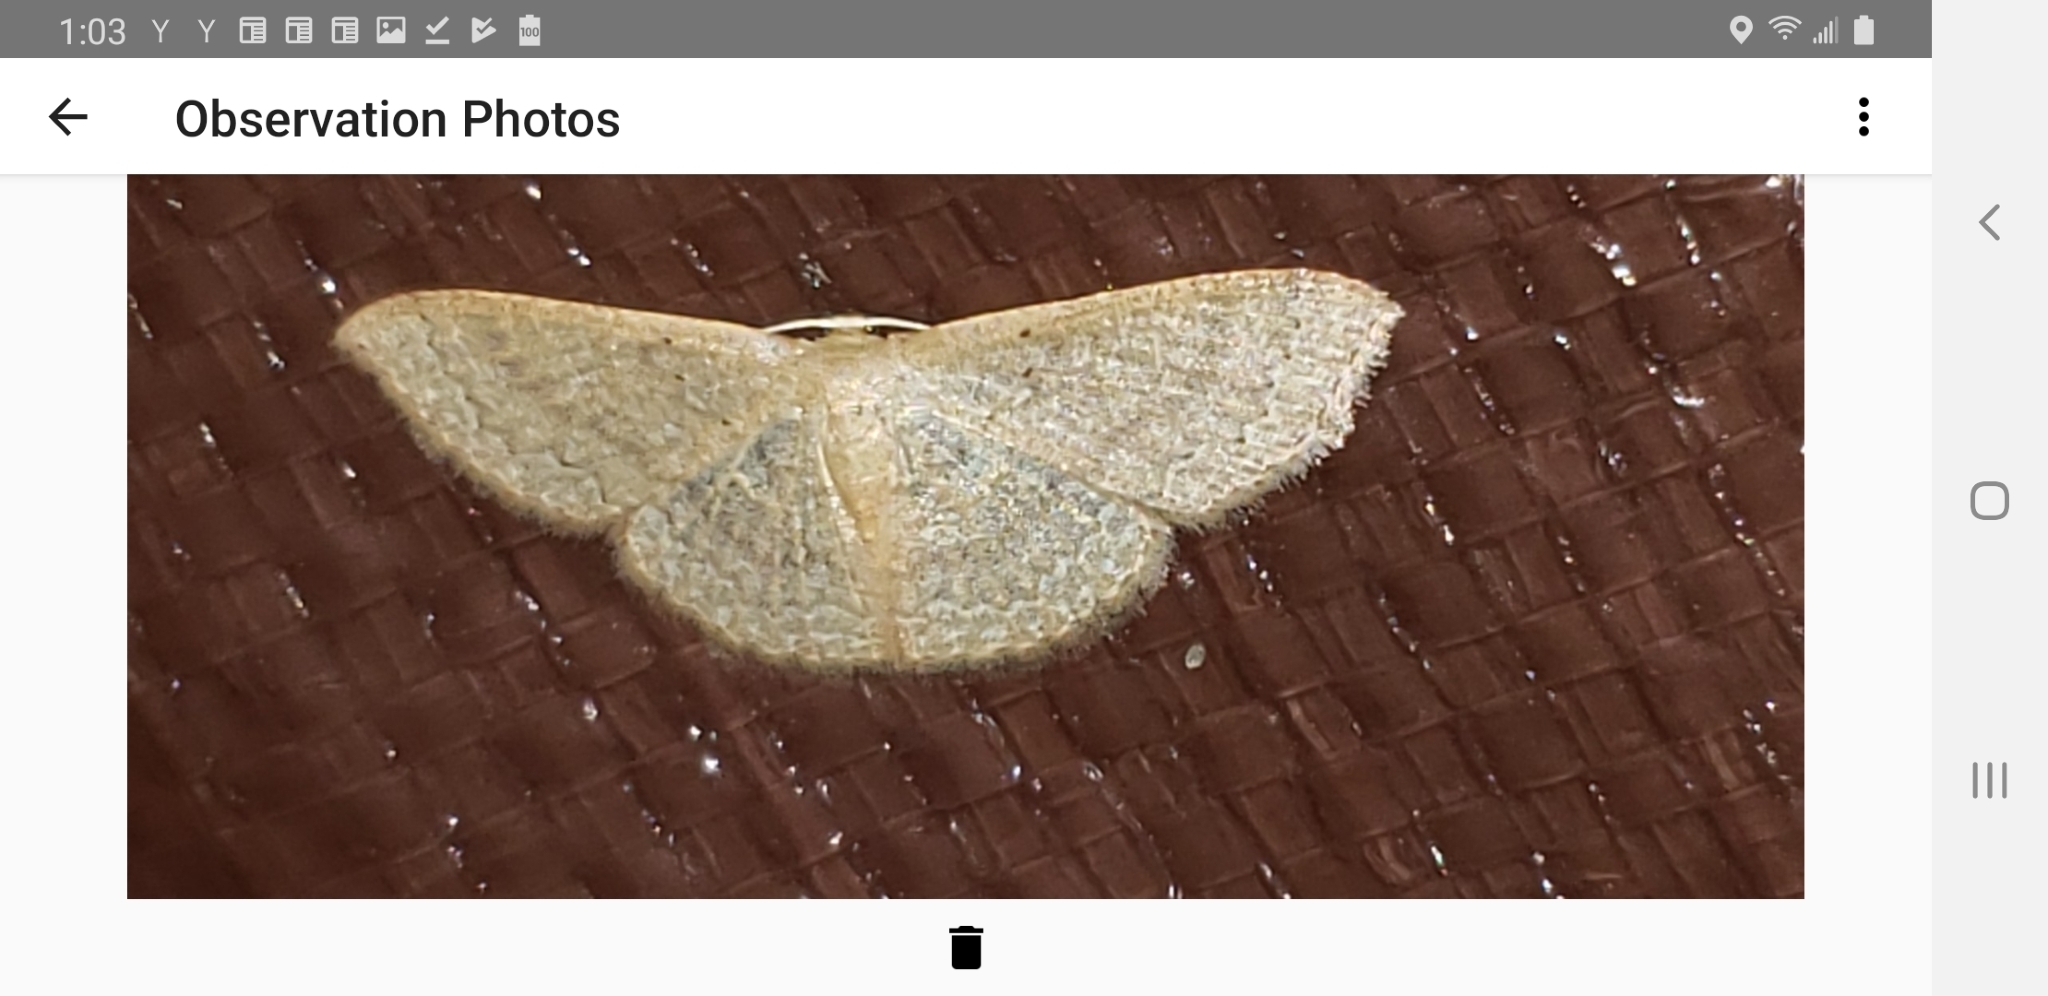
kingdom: Animalia
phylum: Arthropoda
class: Insecta
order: Lepidoptera
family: Geometridae
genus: Pleuroprucha
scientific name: Pleuroprucha insulsaria
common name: Common tan wave
